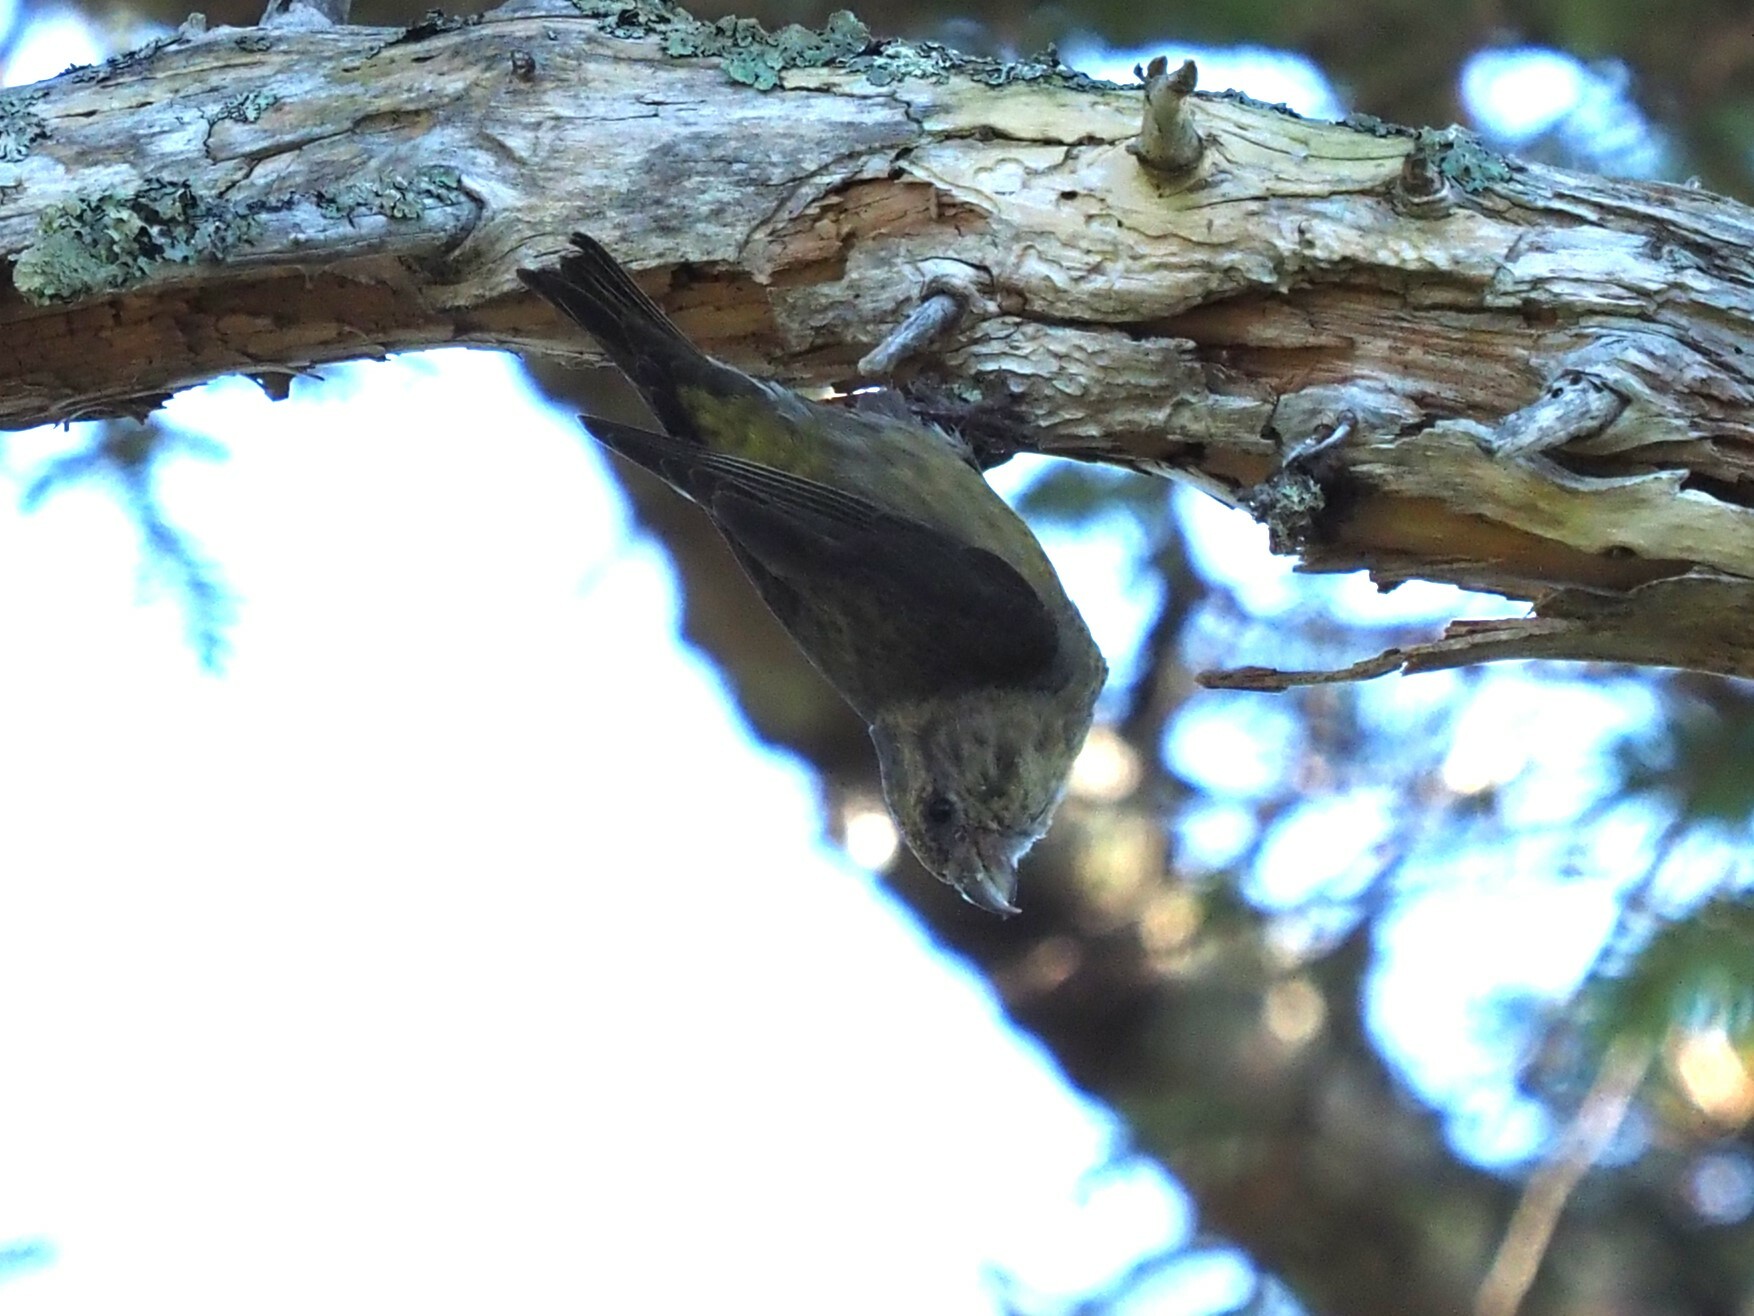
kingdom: Animalia
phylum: Chordata
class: Aves
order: Passeriformes
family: Fringillidae
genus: Loxia
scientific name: Loxia curvirostra
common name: Red crossbill
